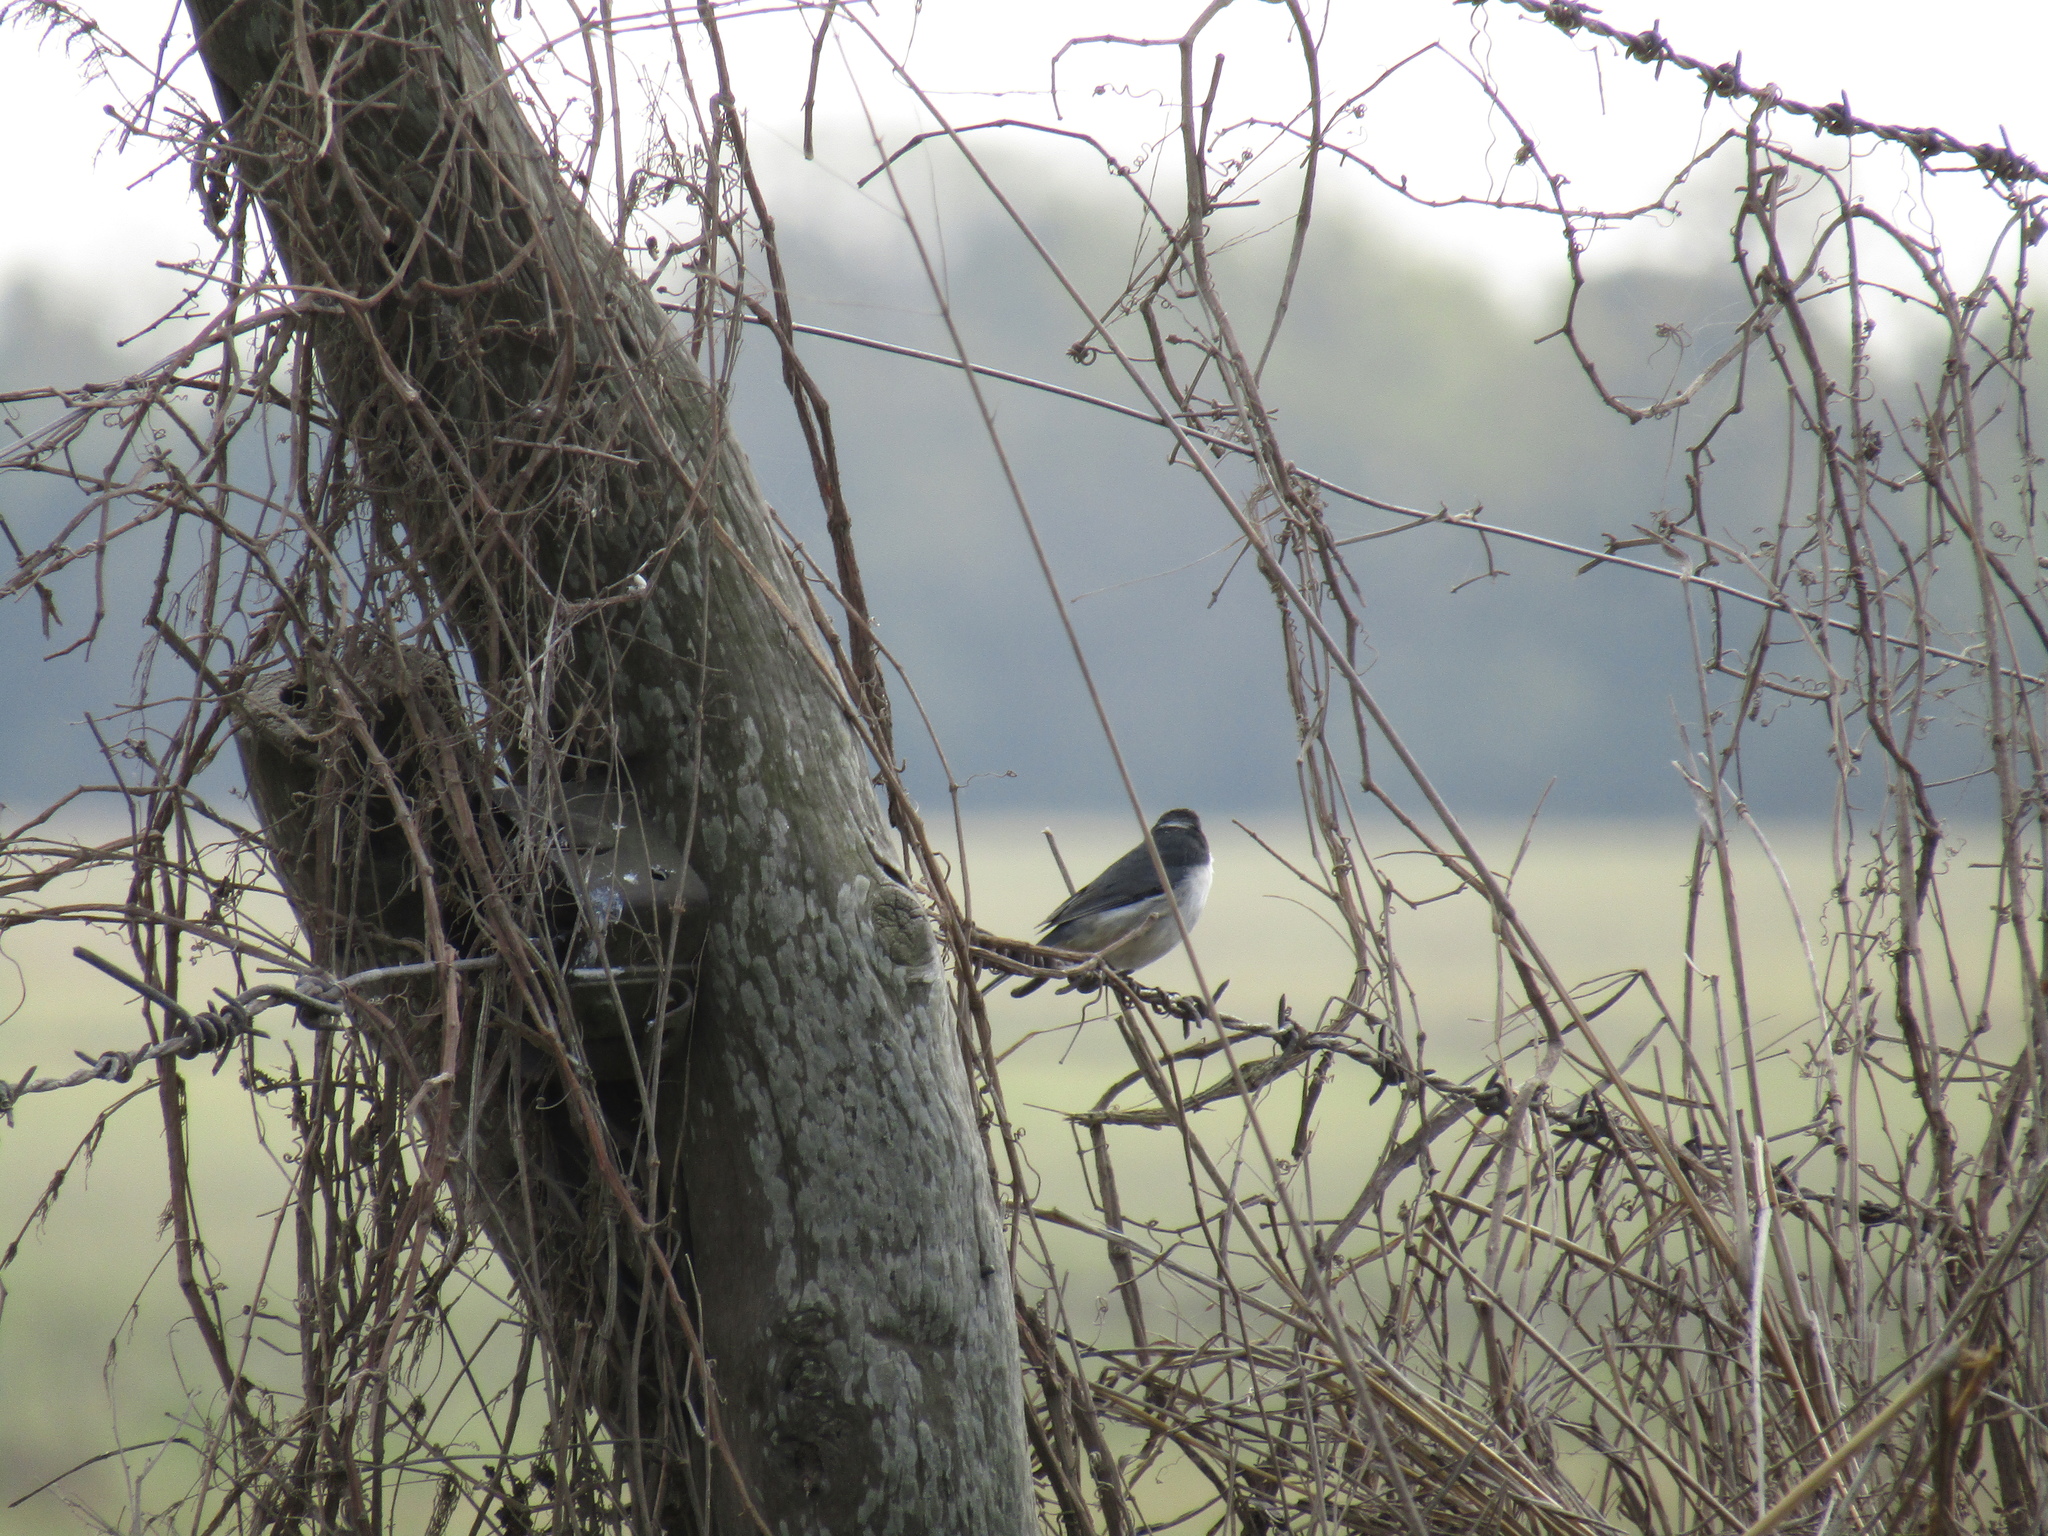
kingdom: Animalia
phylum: Chordata
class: Aves
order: Passeriformes
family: Thraupidae
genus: Microspingus
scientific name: Microspingus melanoleucus
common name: Black-capped warbling-finch
